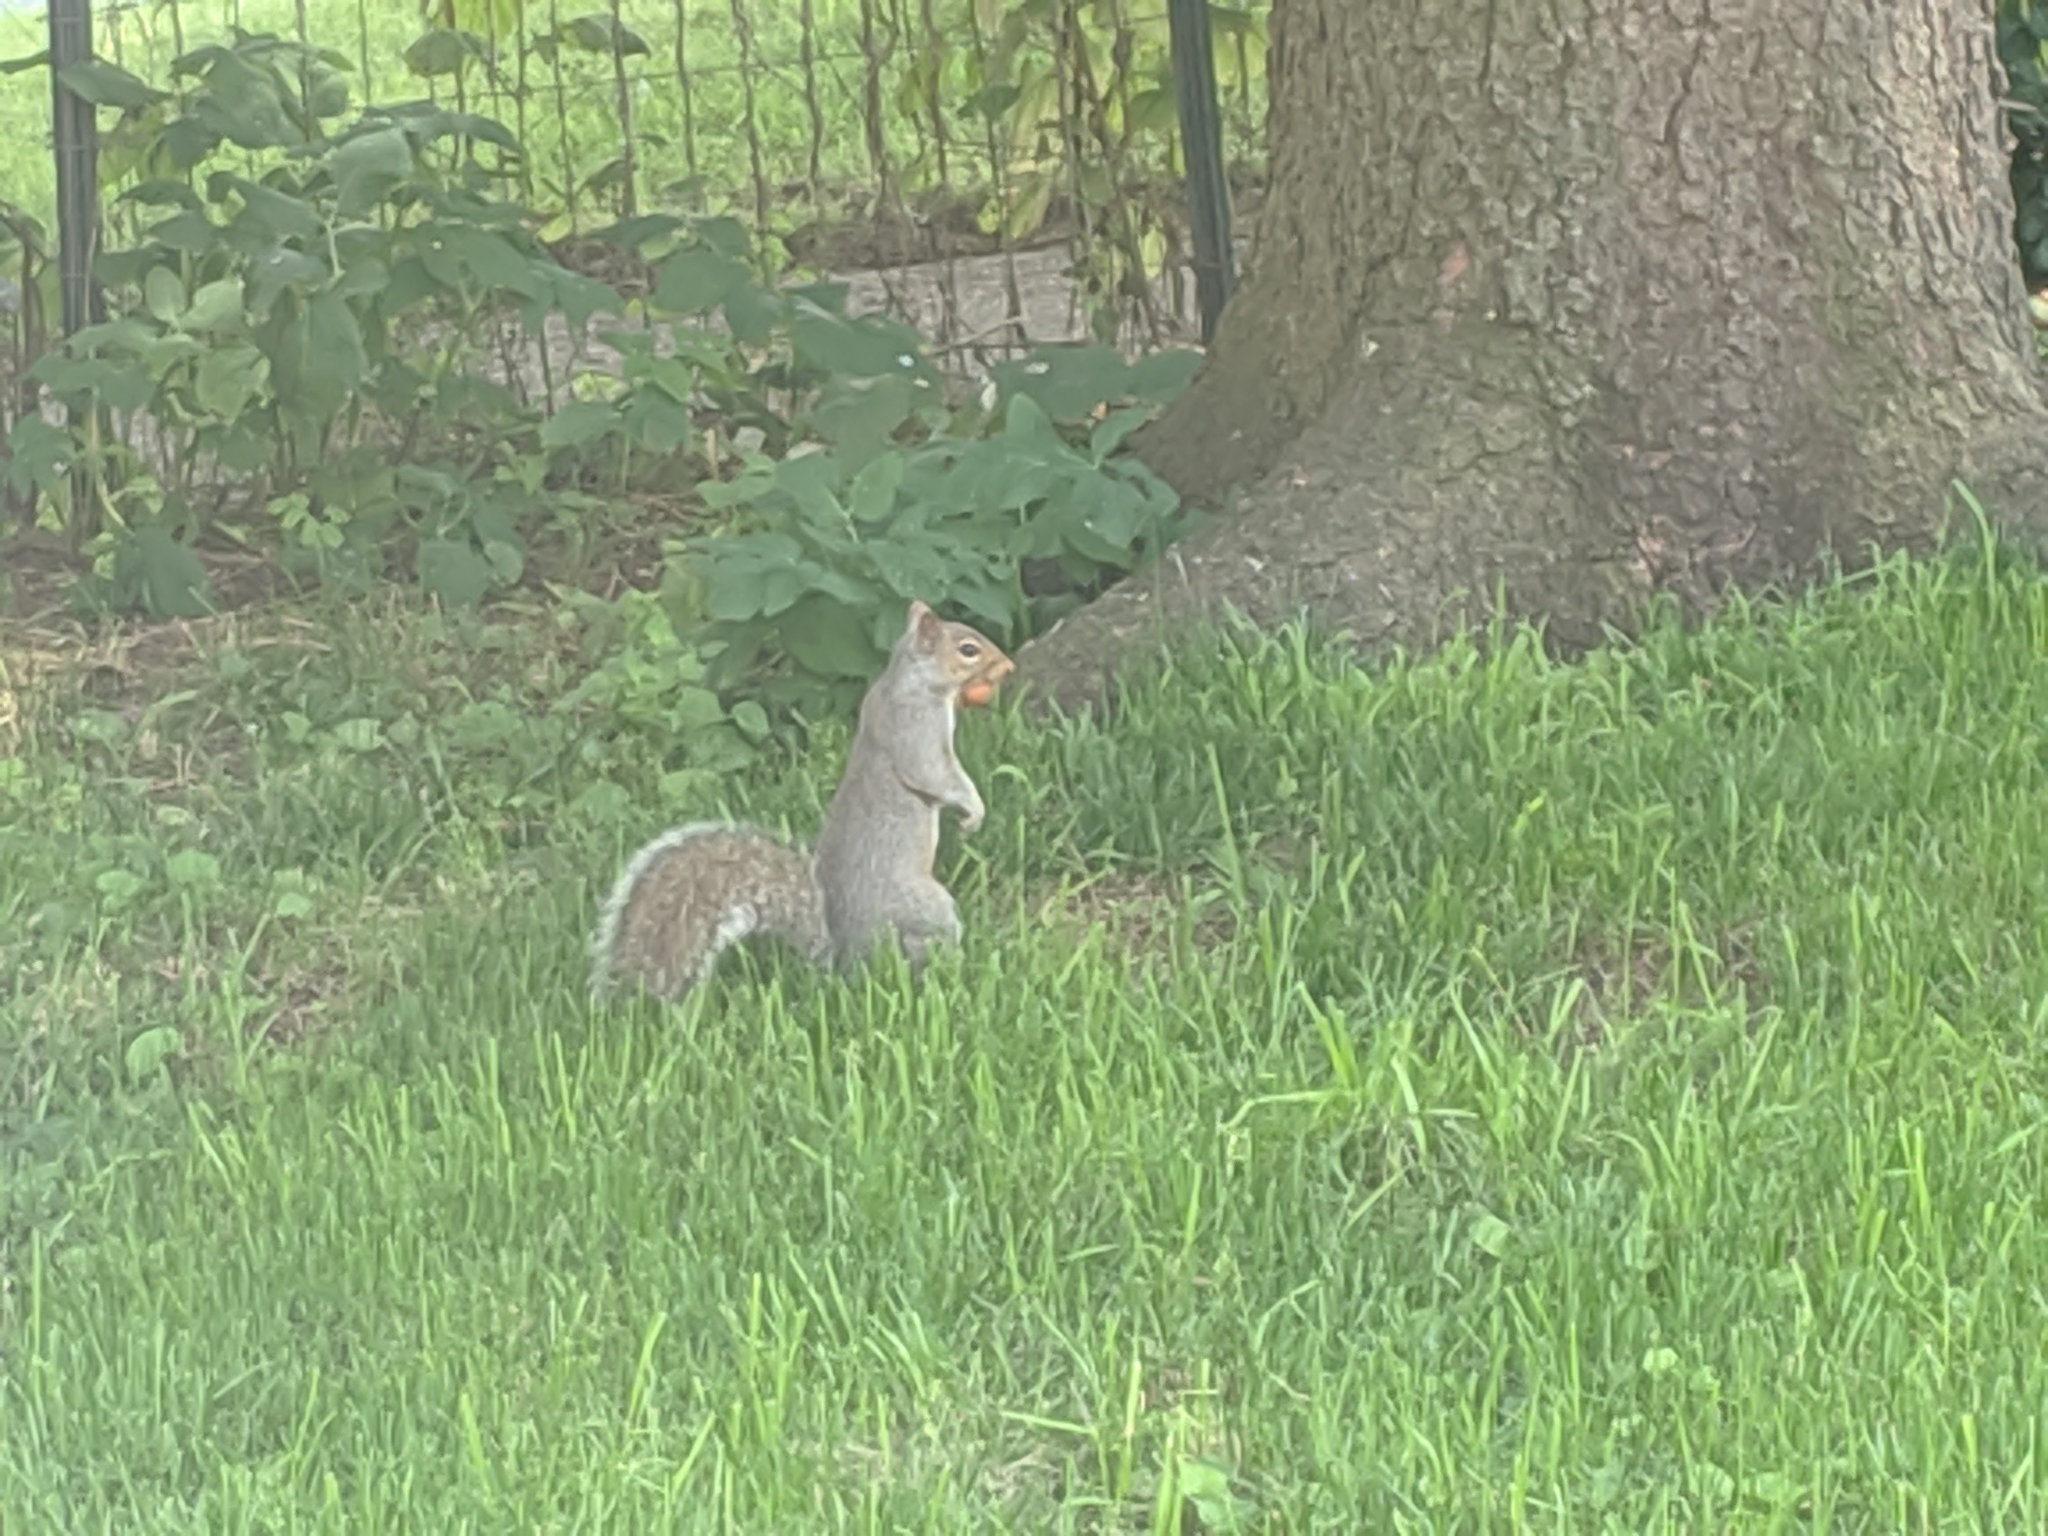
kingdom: Animalia
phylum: Chordata
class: Mammalia
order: Rodentia
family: Sciuridae
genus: Sciurus
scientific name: Sciurus carolinensis
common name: Eastern gray squirrel
